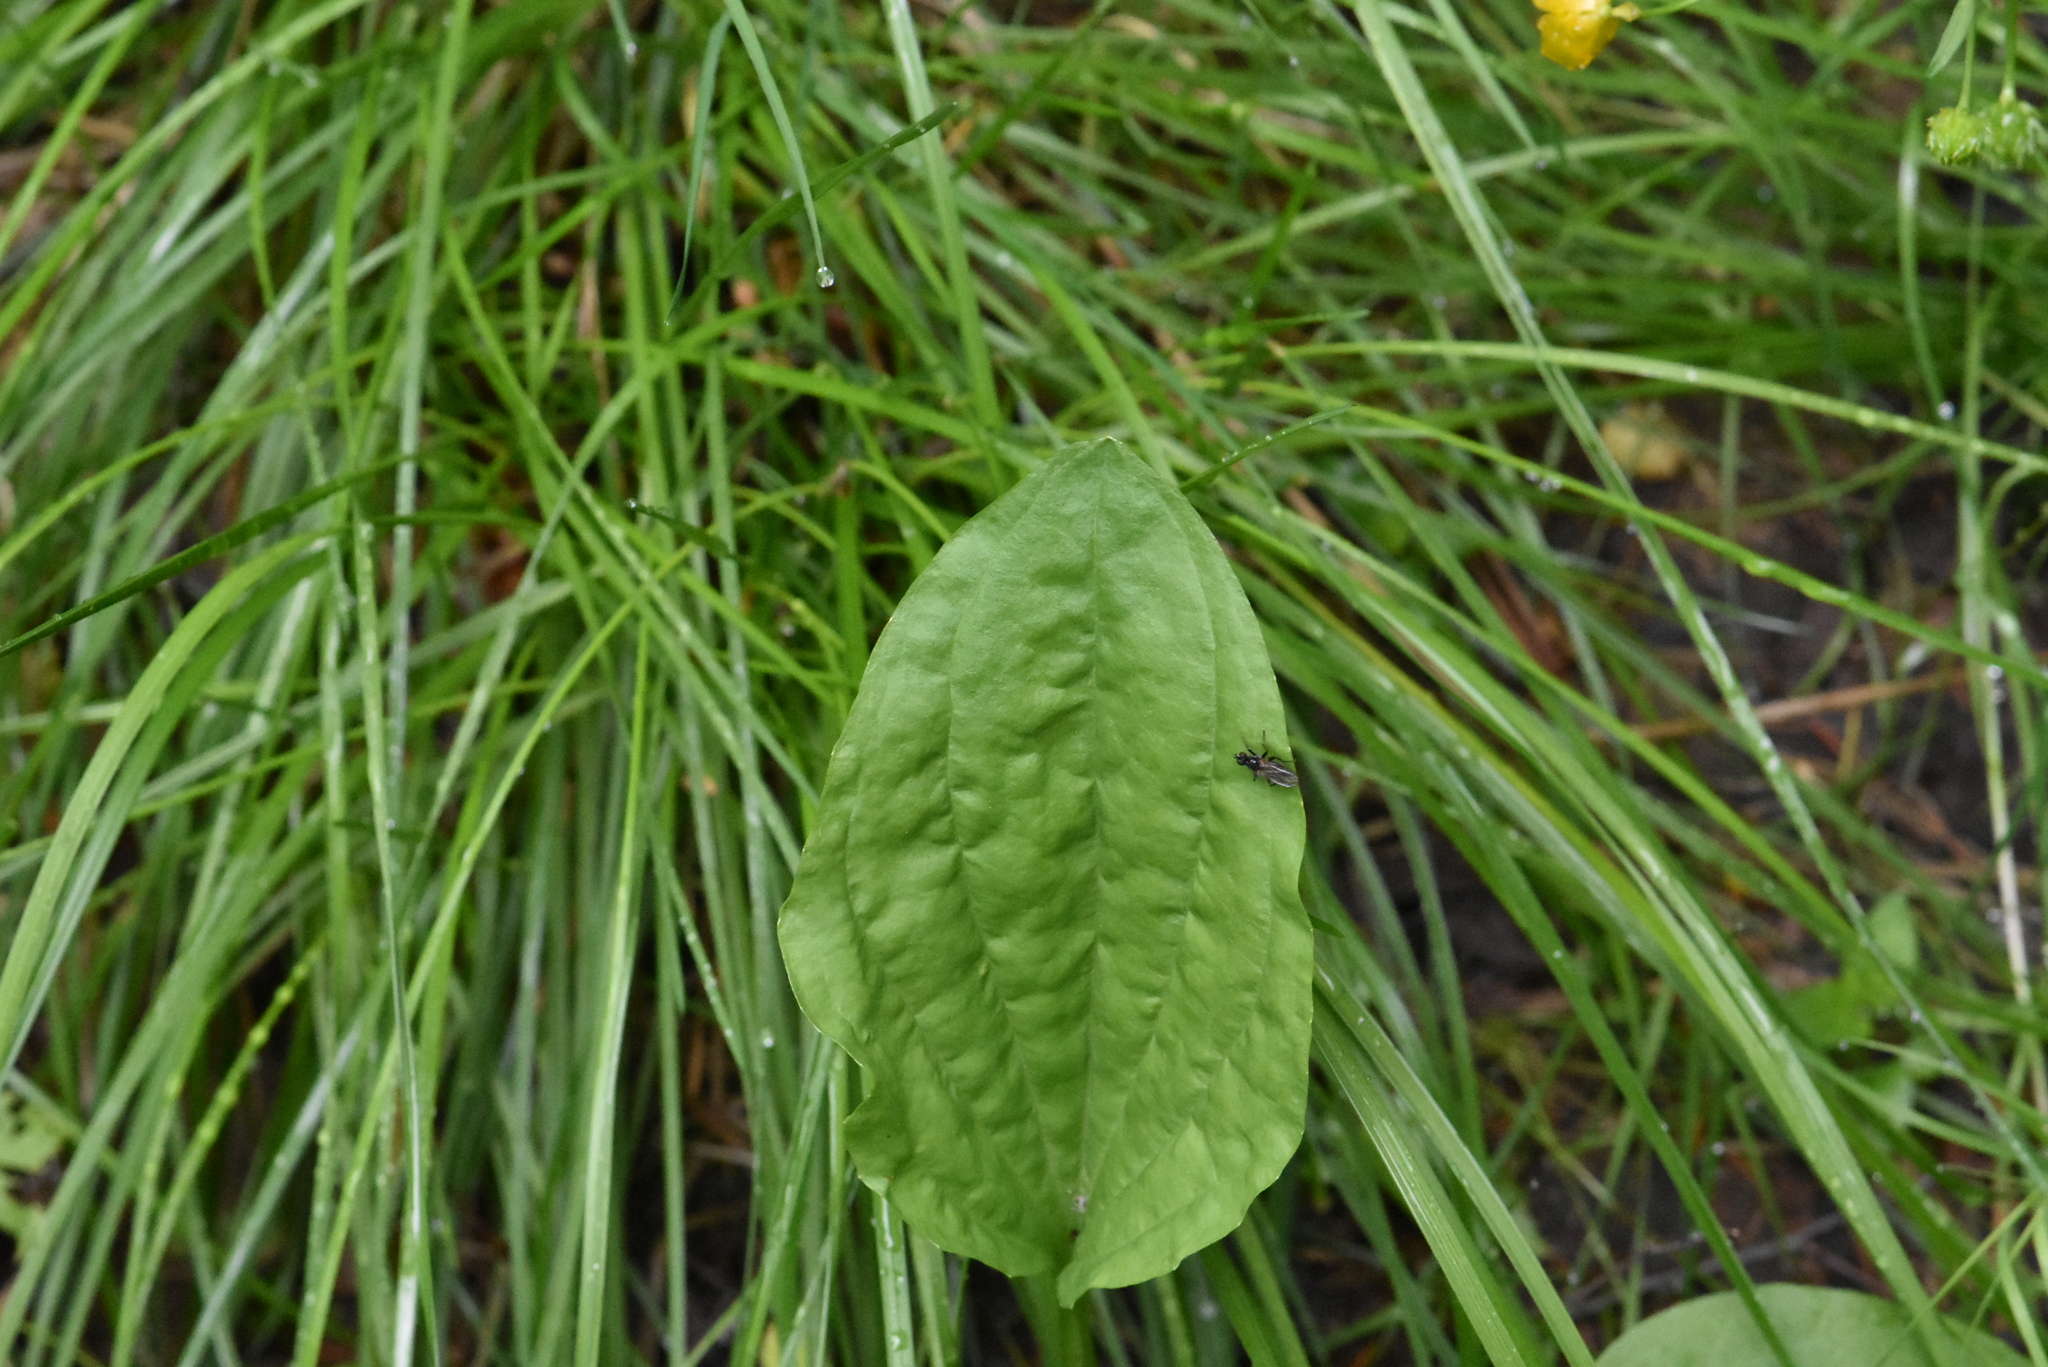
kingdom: Plantae
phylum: Tracheophyta
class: Magnoliopsida
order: Lamiales
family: Plantaginaceae
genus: Plantago
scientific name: Plantago major
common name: Common plantain
